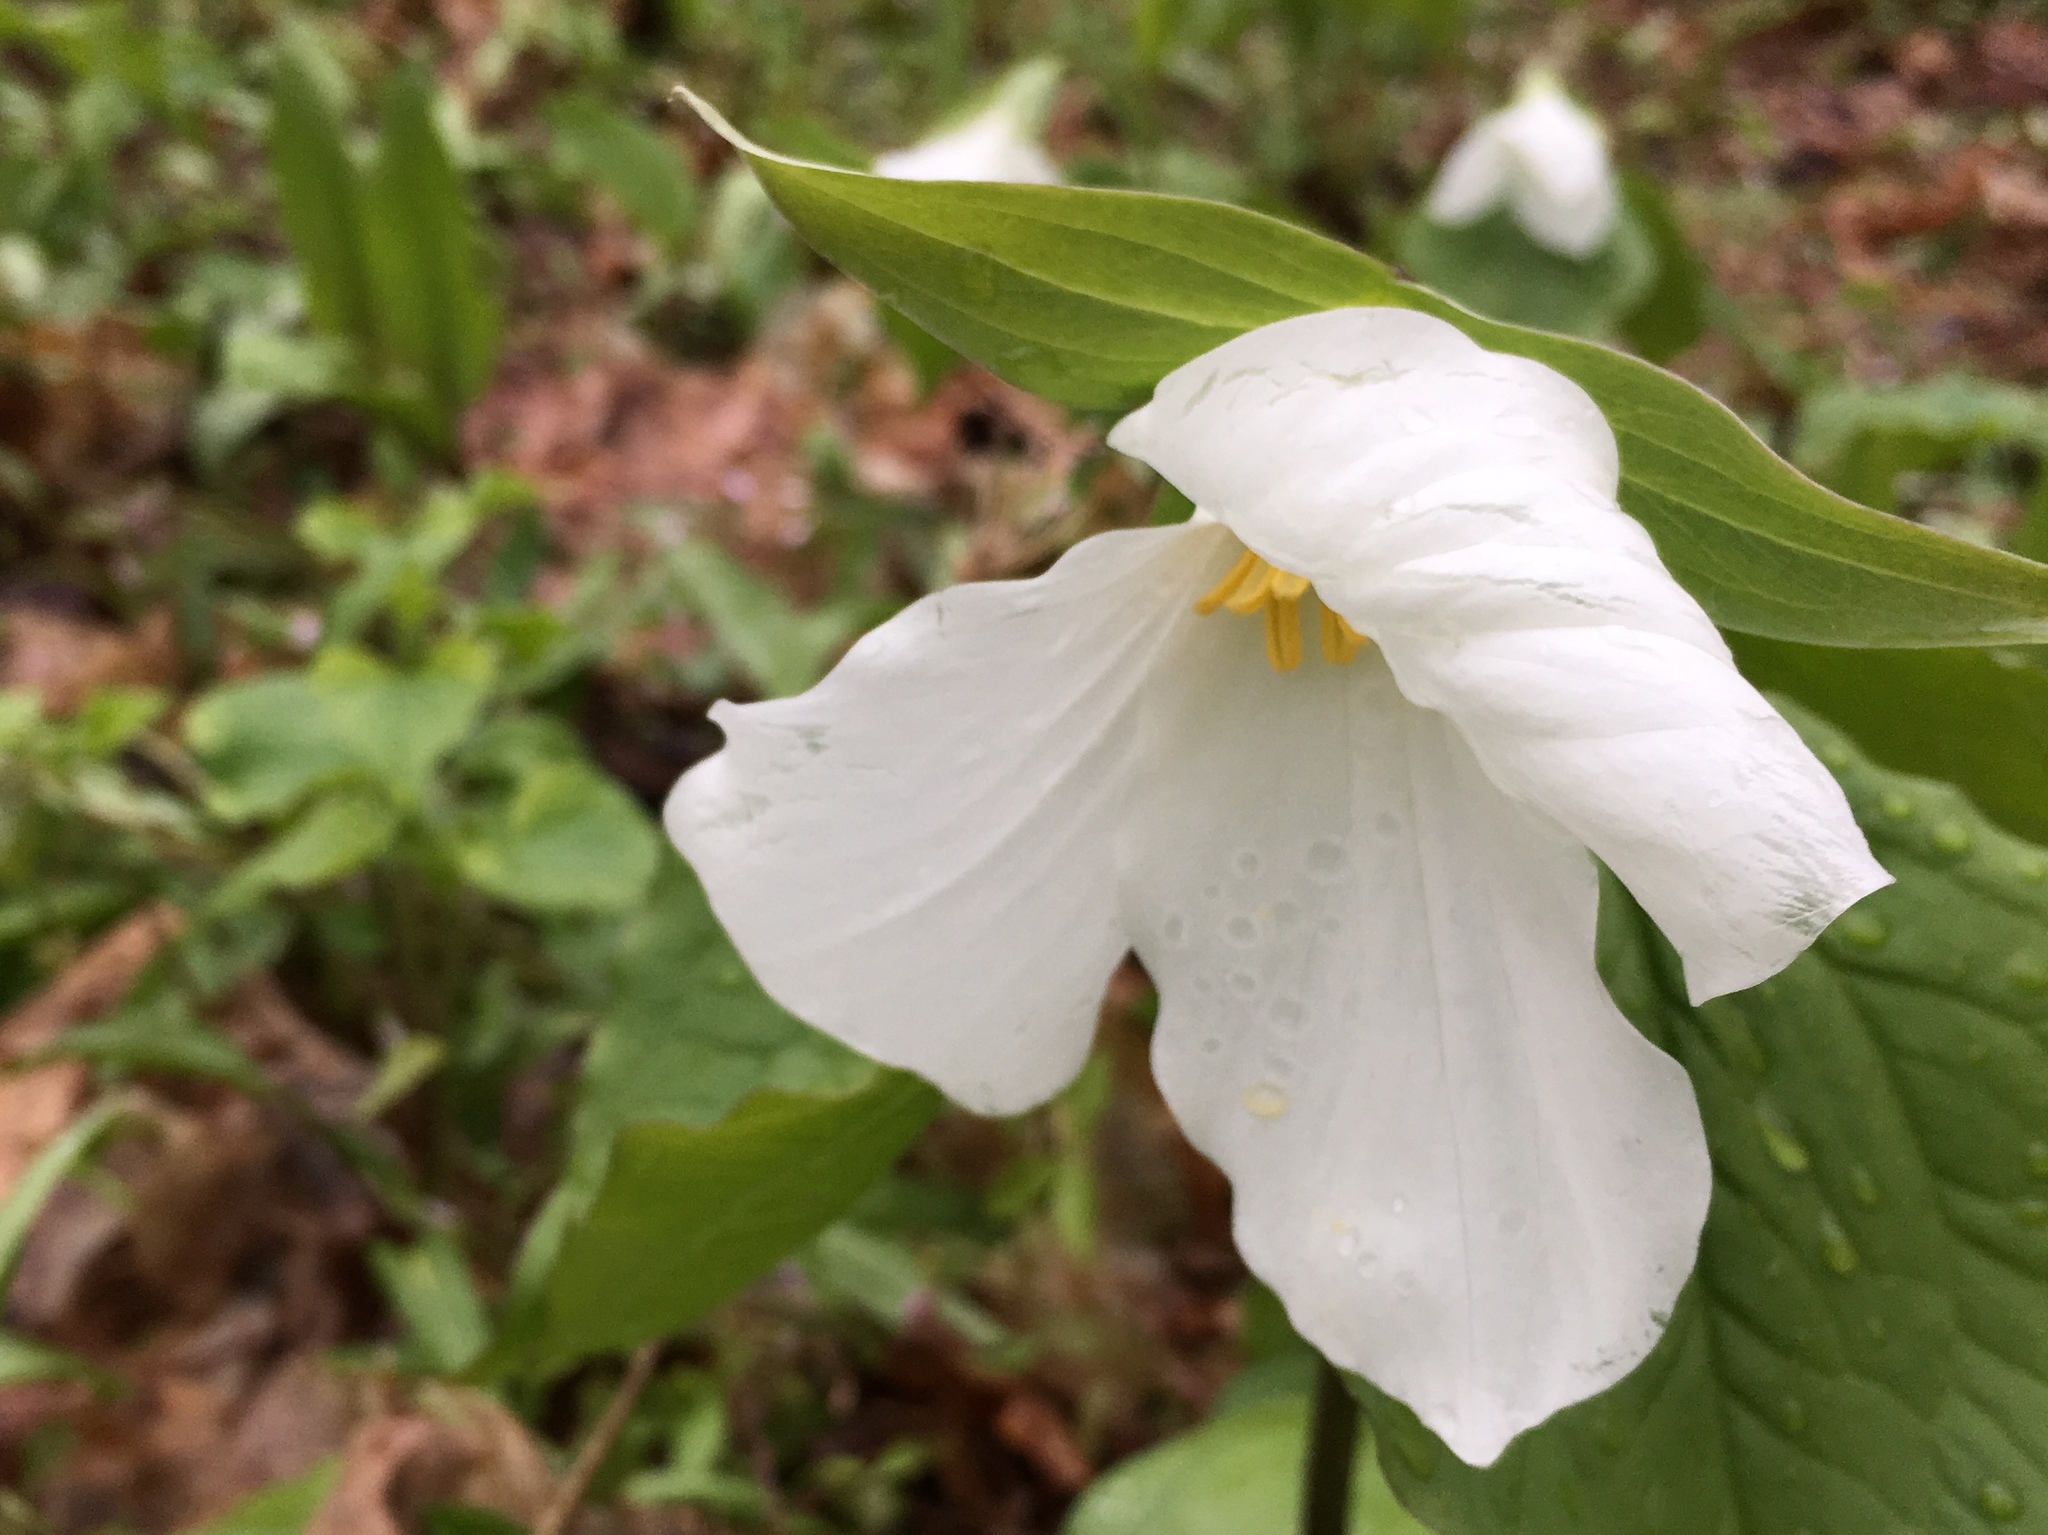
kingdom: Plantae
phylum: Tracheophyta
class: Liliopsida
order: Liliales
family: Melanthiaceae
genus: Trillium
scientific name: Trillium grandiflorum
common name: Great white trillium
